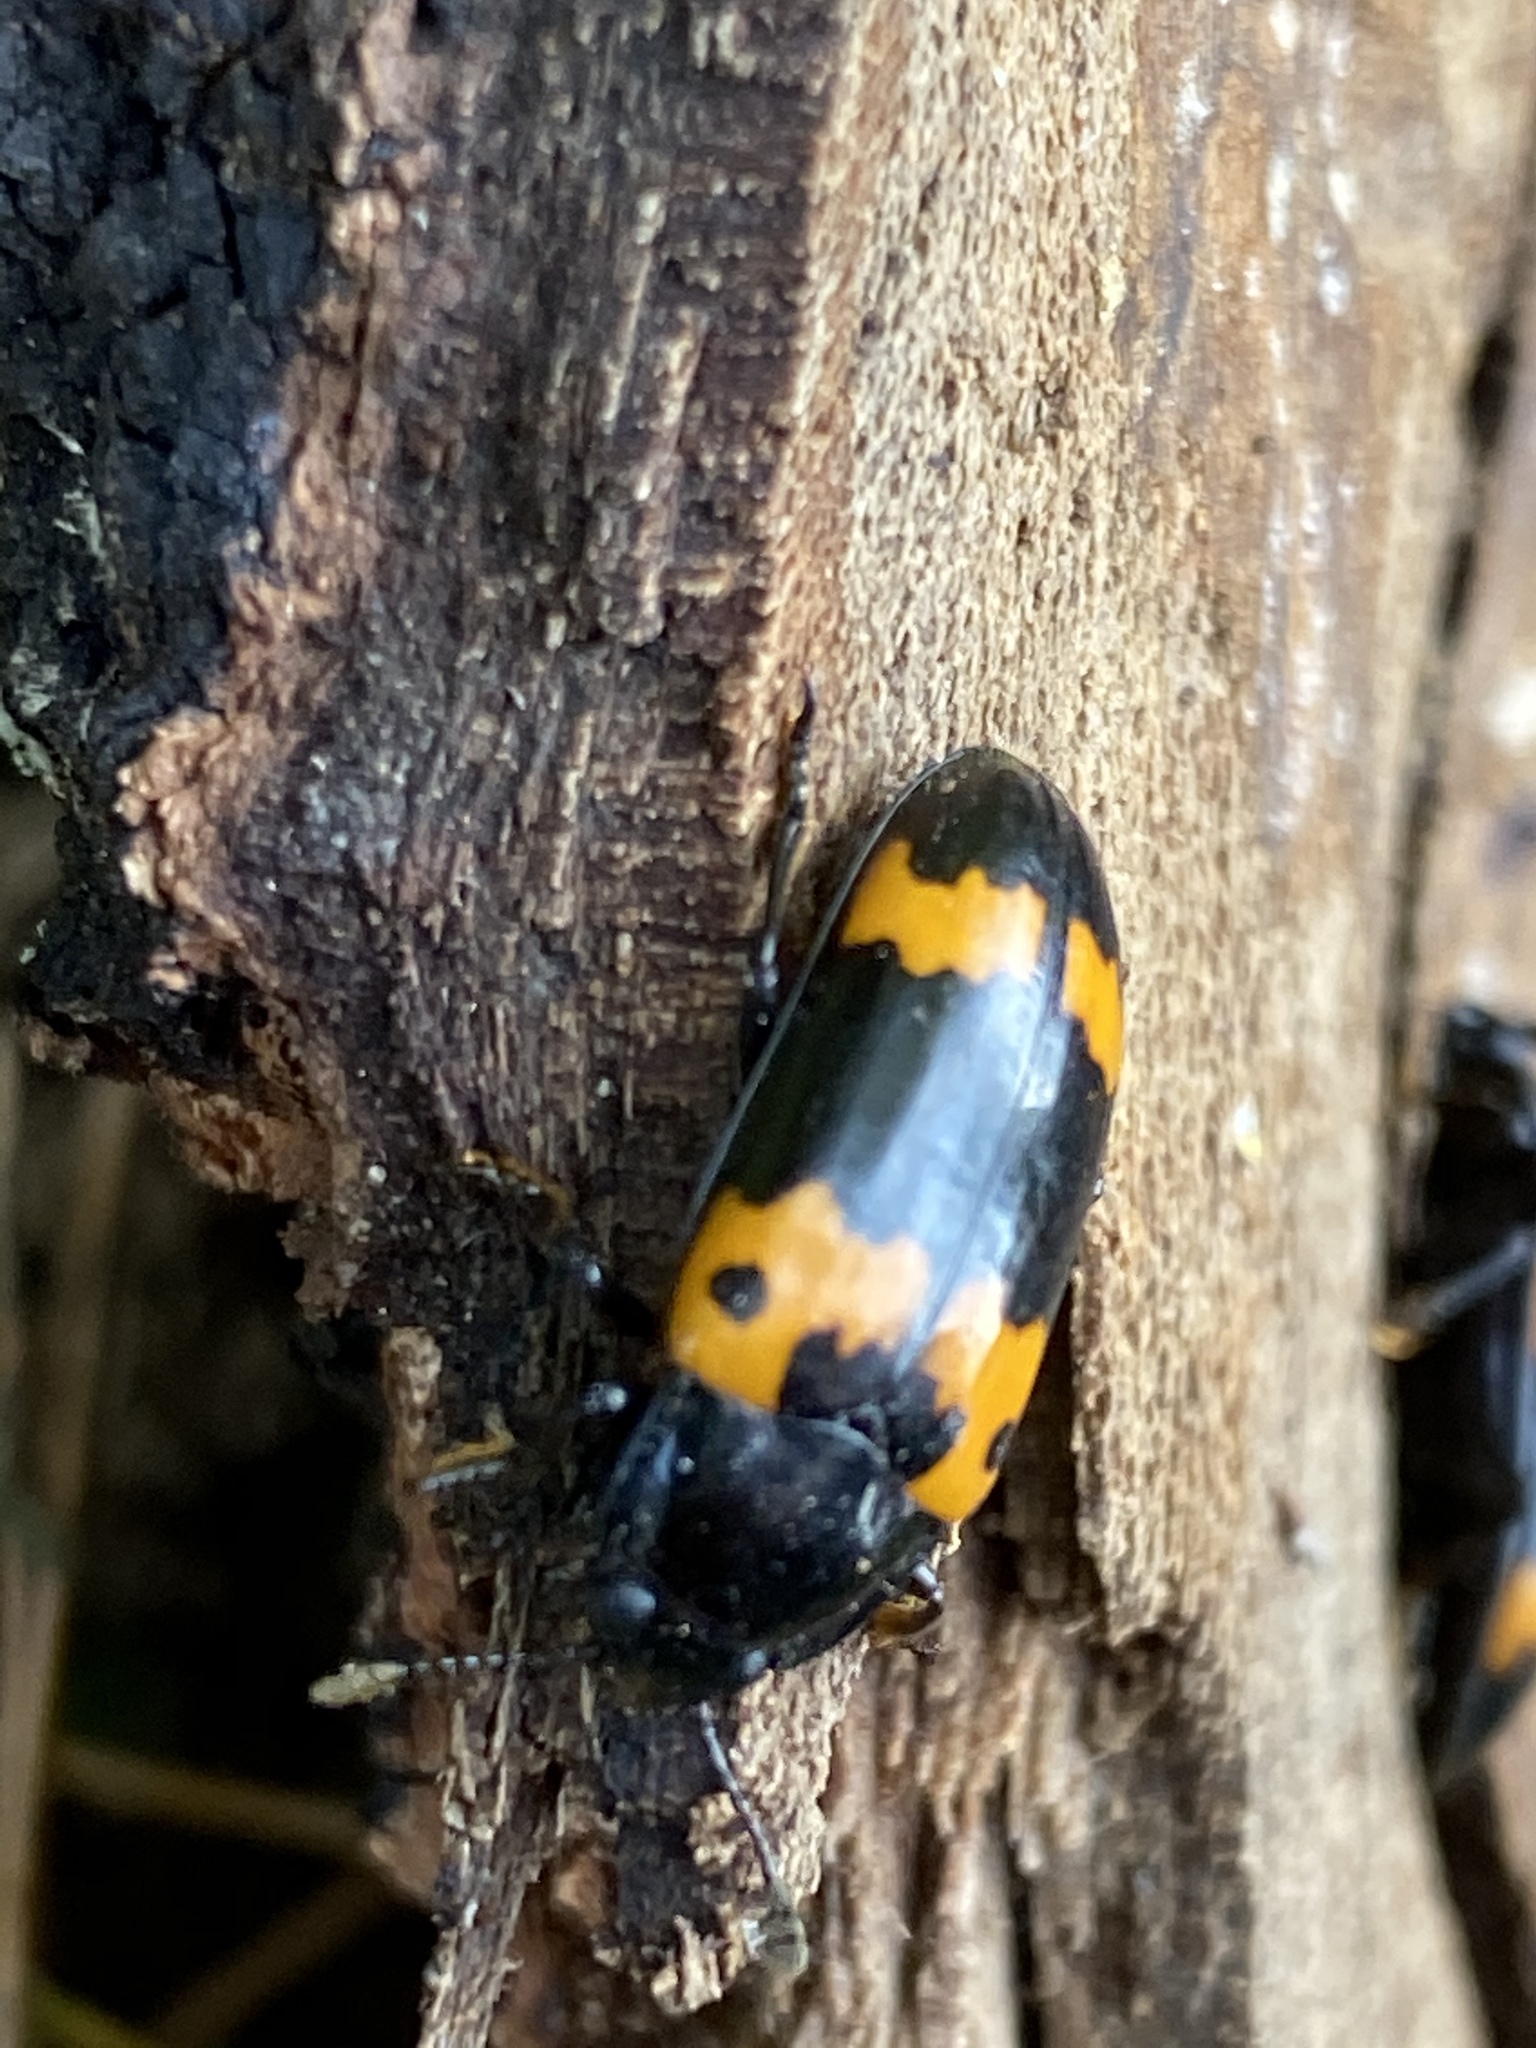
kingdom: Animalia
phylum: Arthropoda
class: Insecta
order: Coleoptera
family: Erotylidae
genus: Megalodacne
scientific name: Megalodacne fasciata
